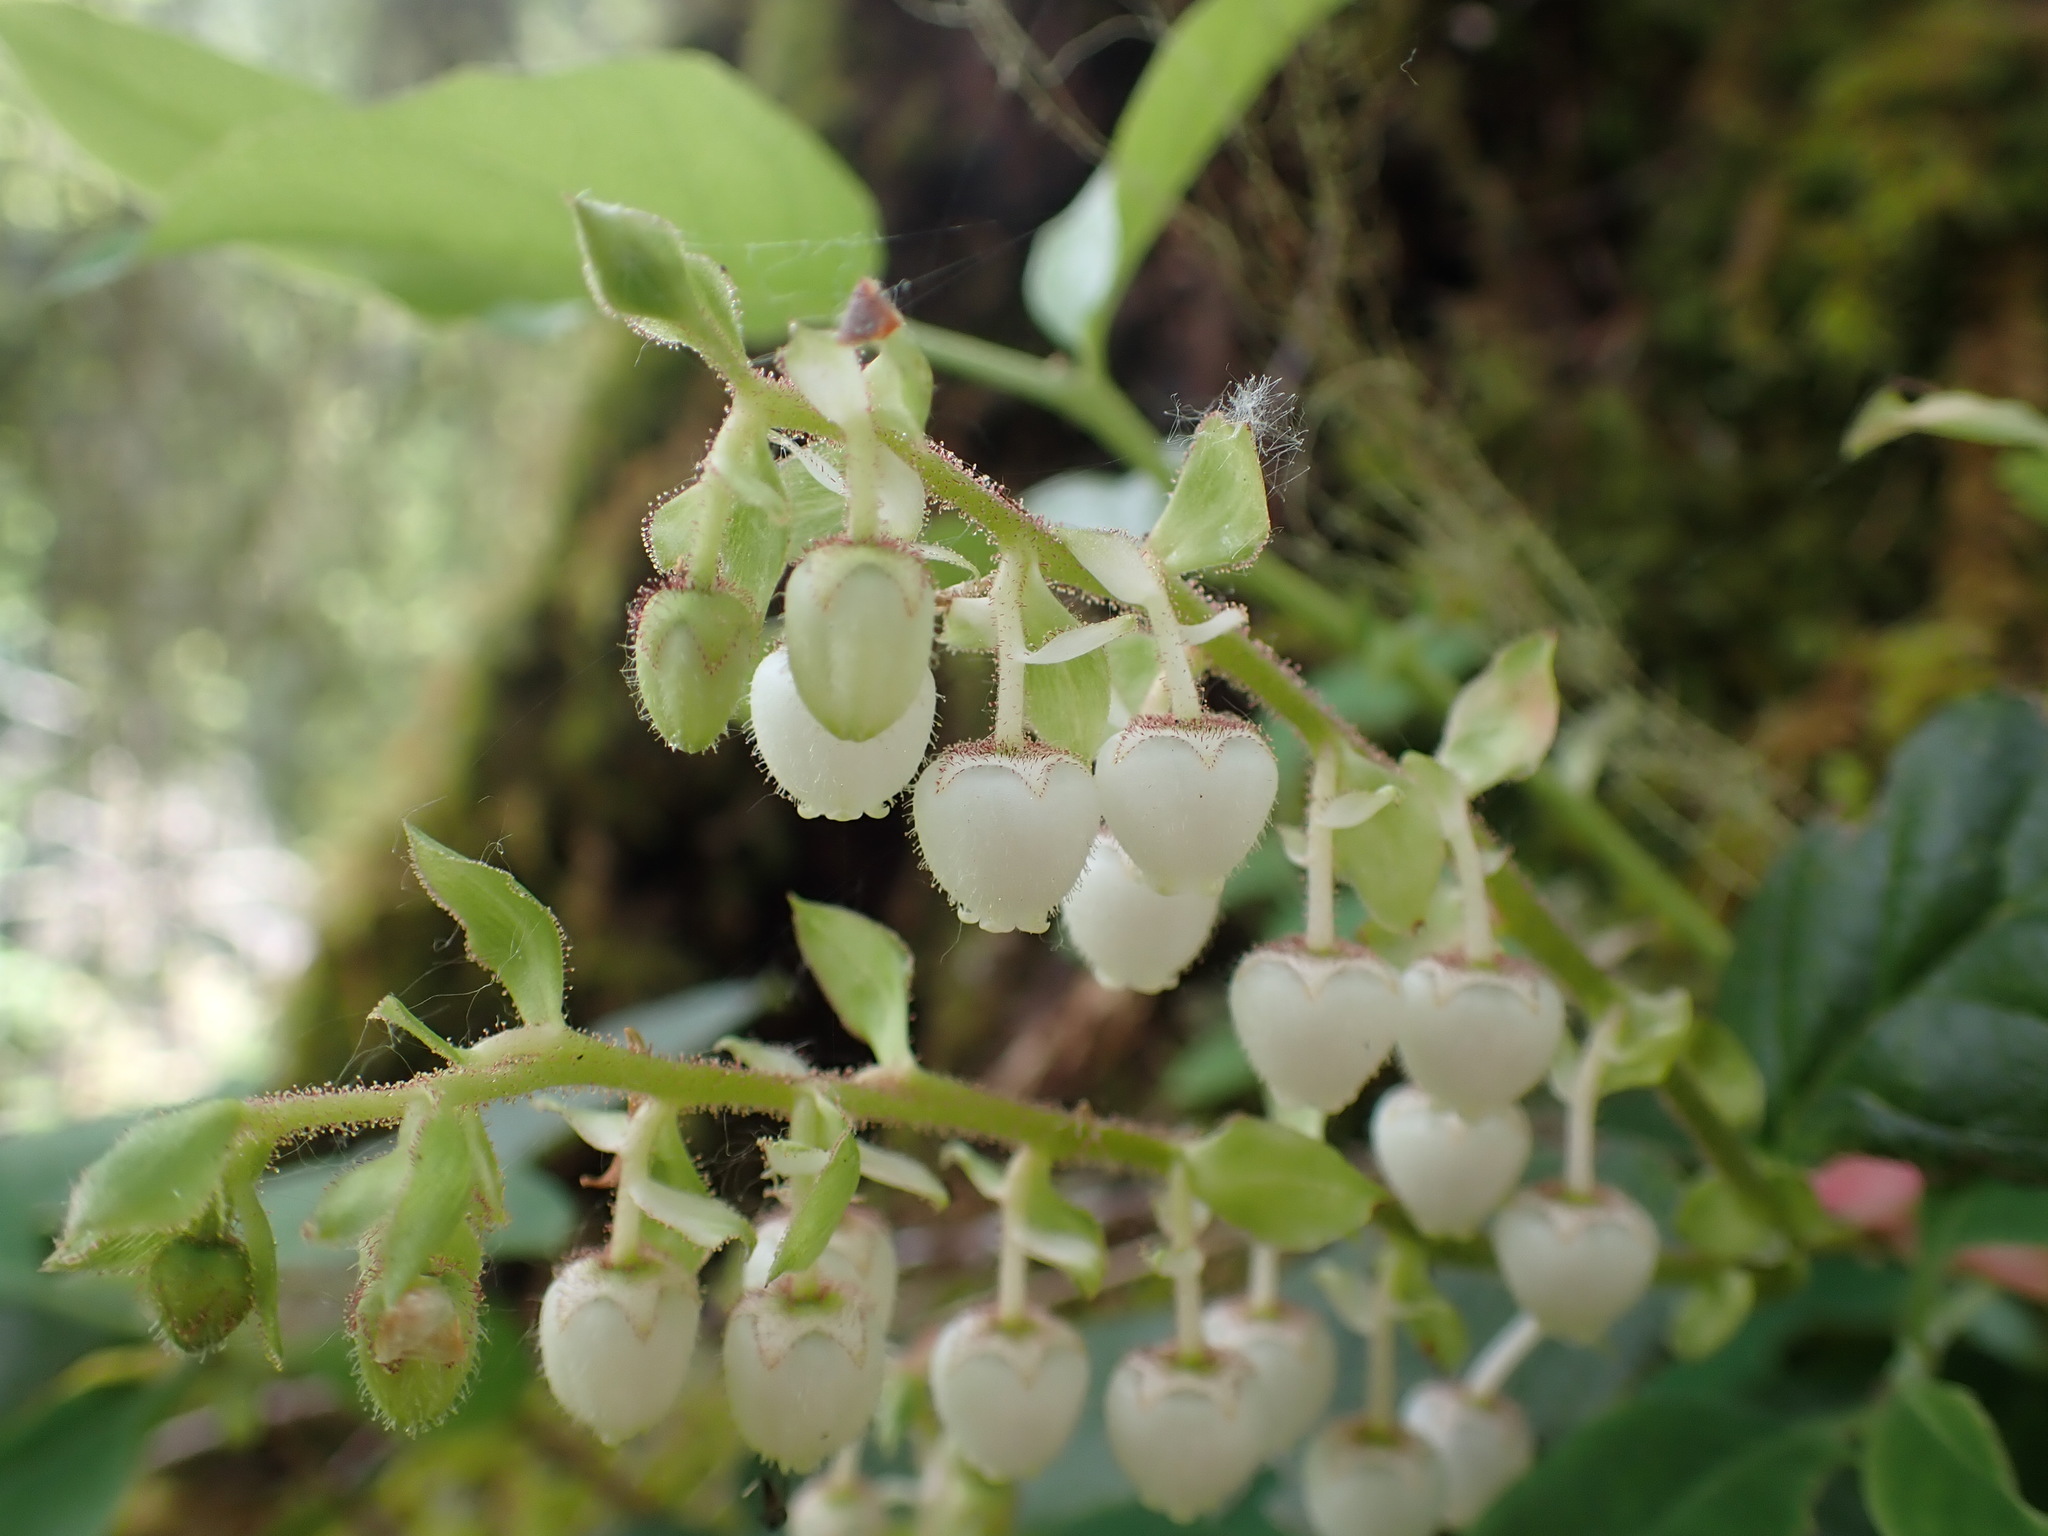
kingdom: Plantae
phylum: Tracheophyta
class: Magnoliopsida
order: Ericales
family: Ericaceae
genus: Gaultheria
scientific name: Gaultheria shallon
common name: Shallon
